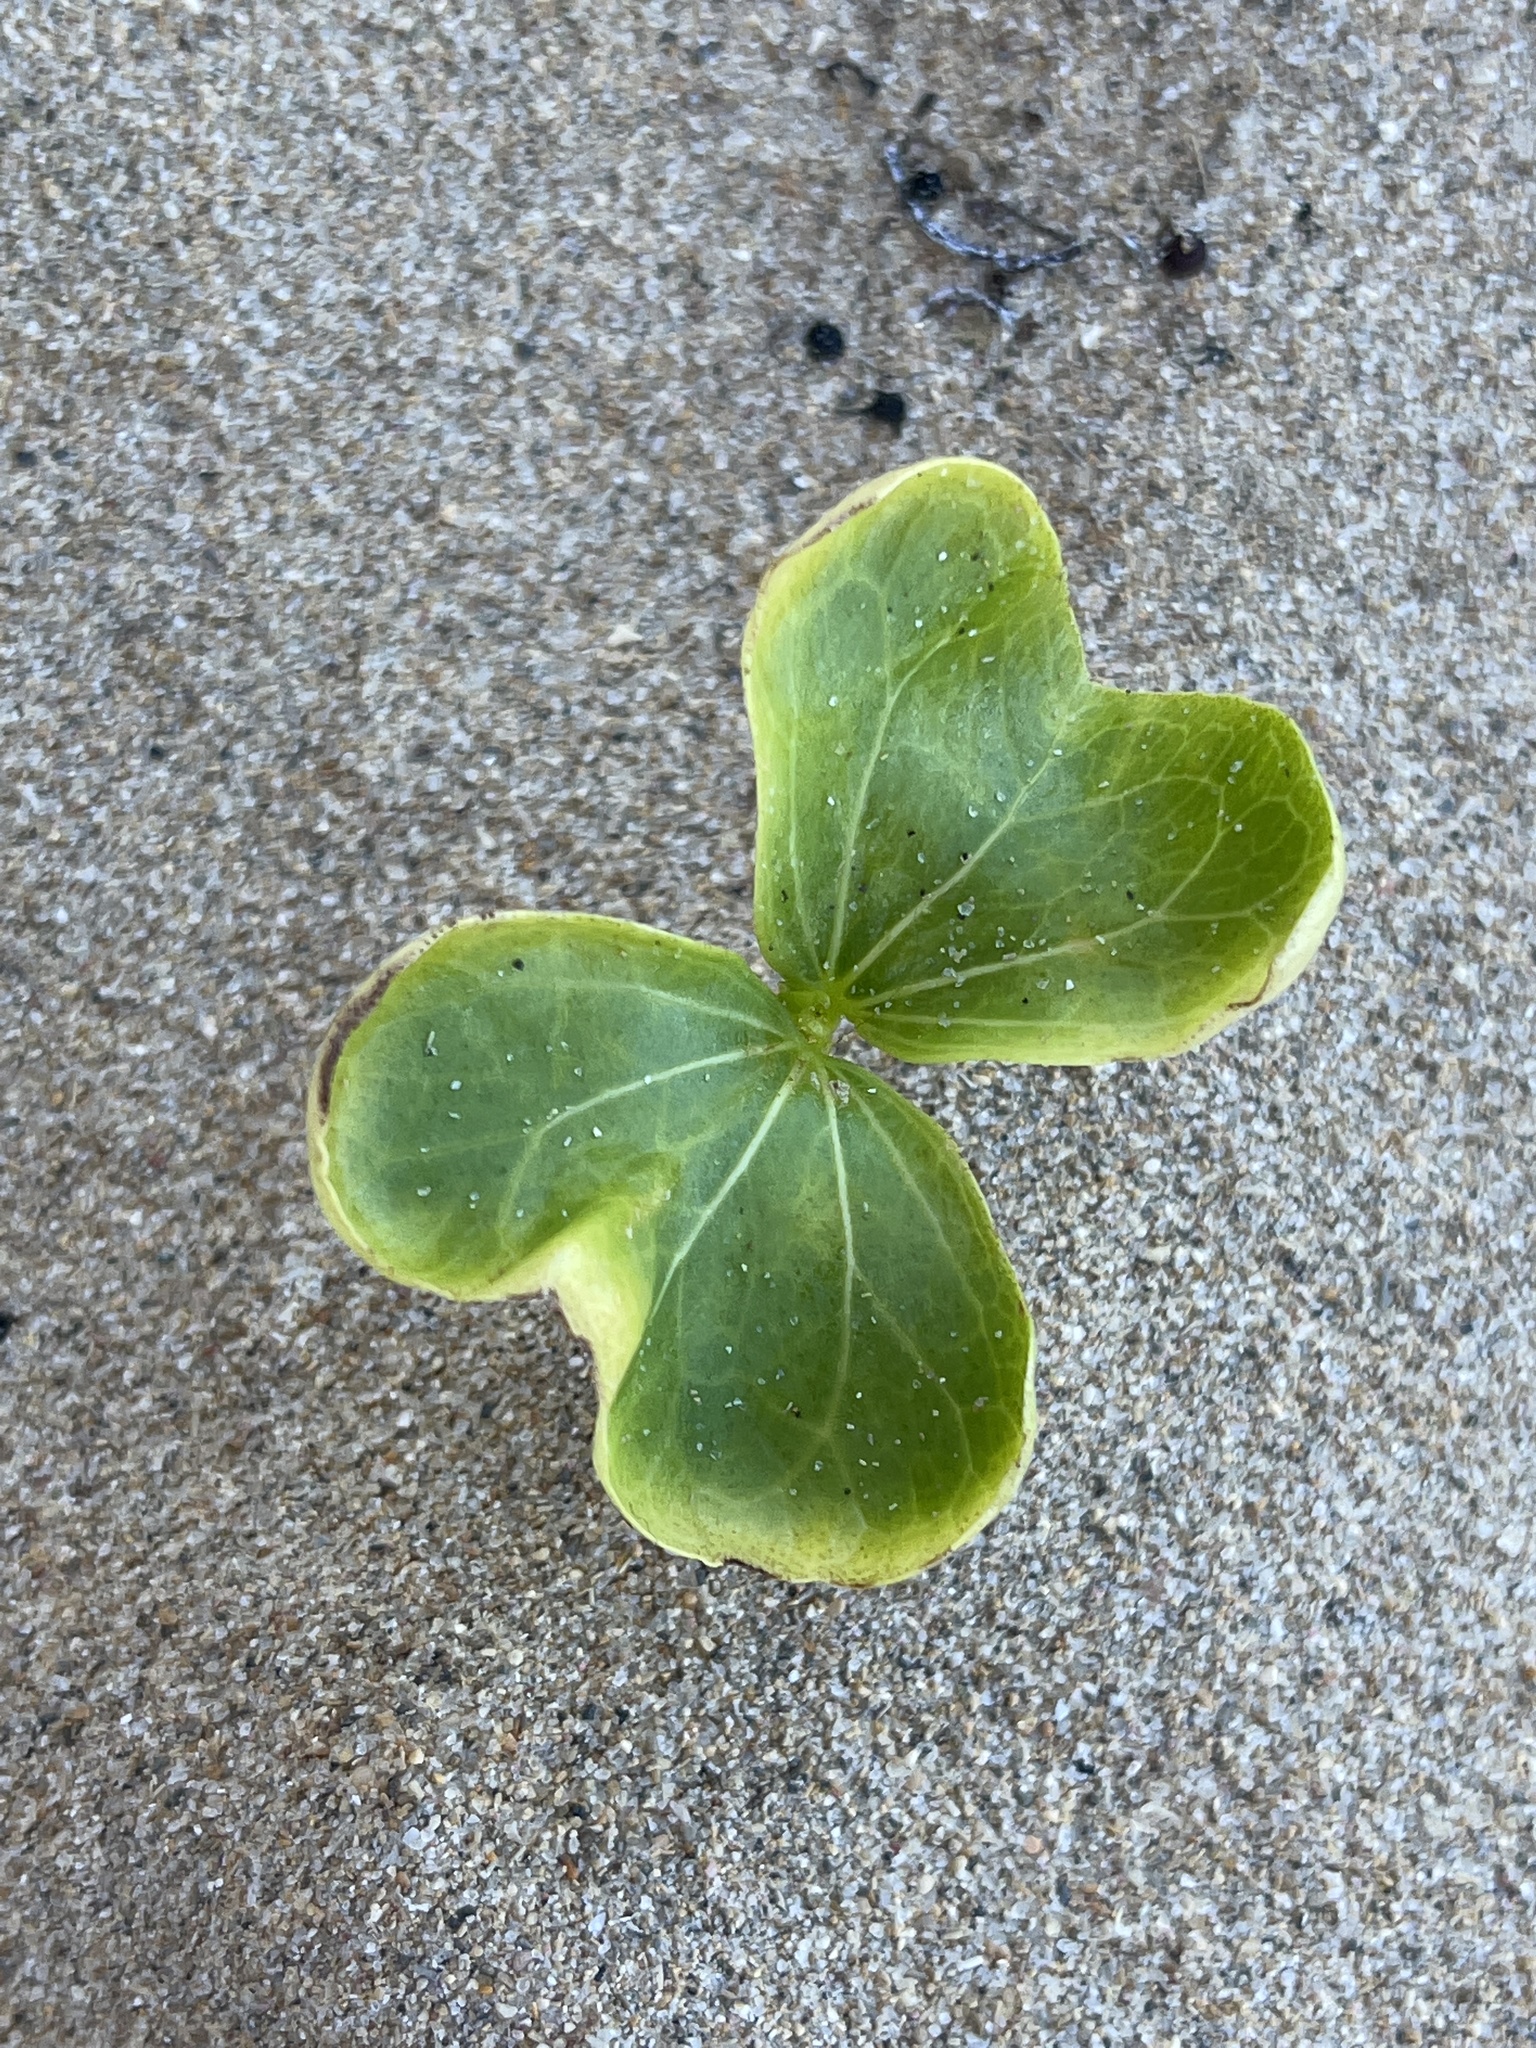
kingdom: Plantae
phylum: Tracheophyta
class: Magnoliopsida
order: Solanales
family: Convolvulaceae
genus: Ipomoea
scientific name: Ipomoea pes-caprae
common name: Beach morning glory
